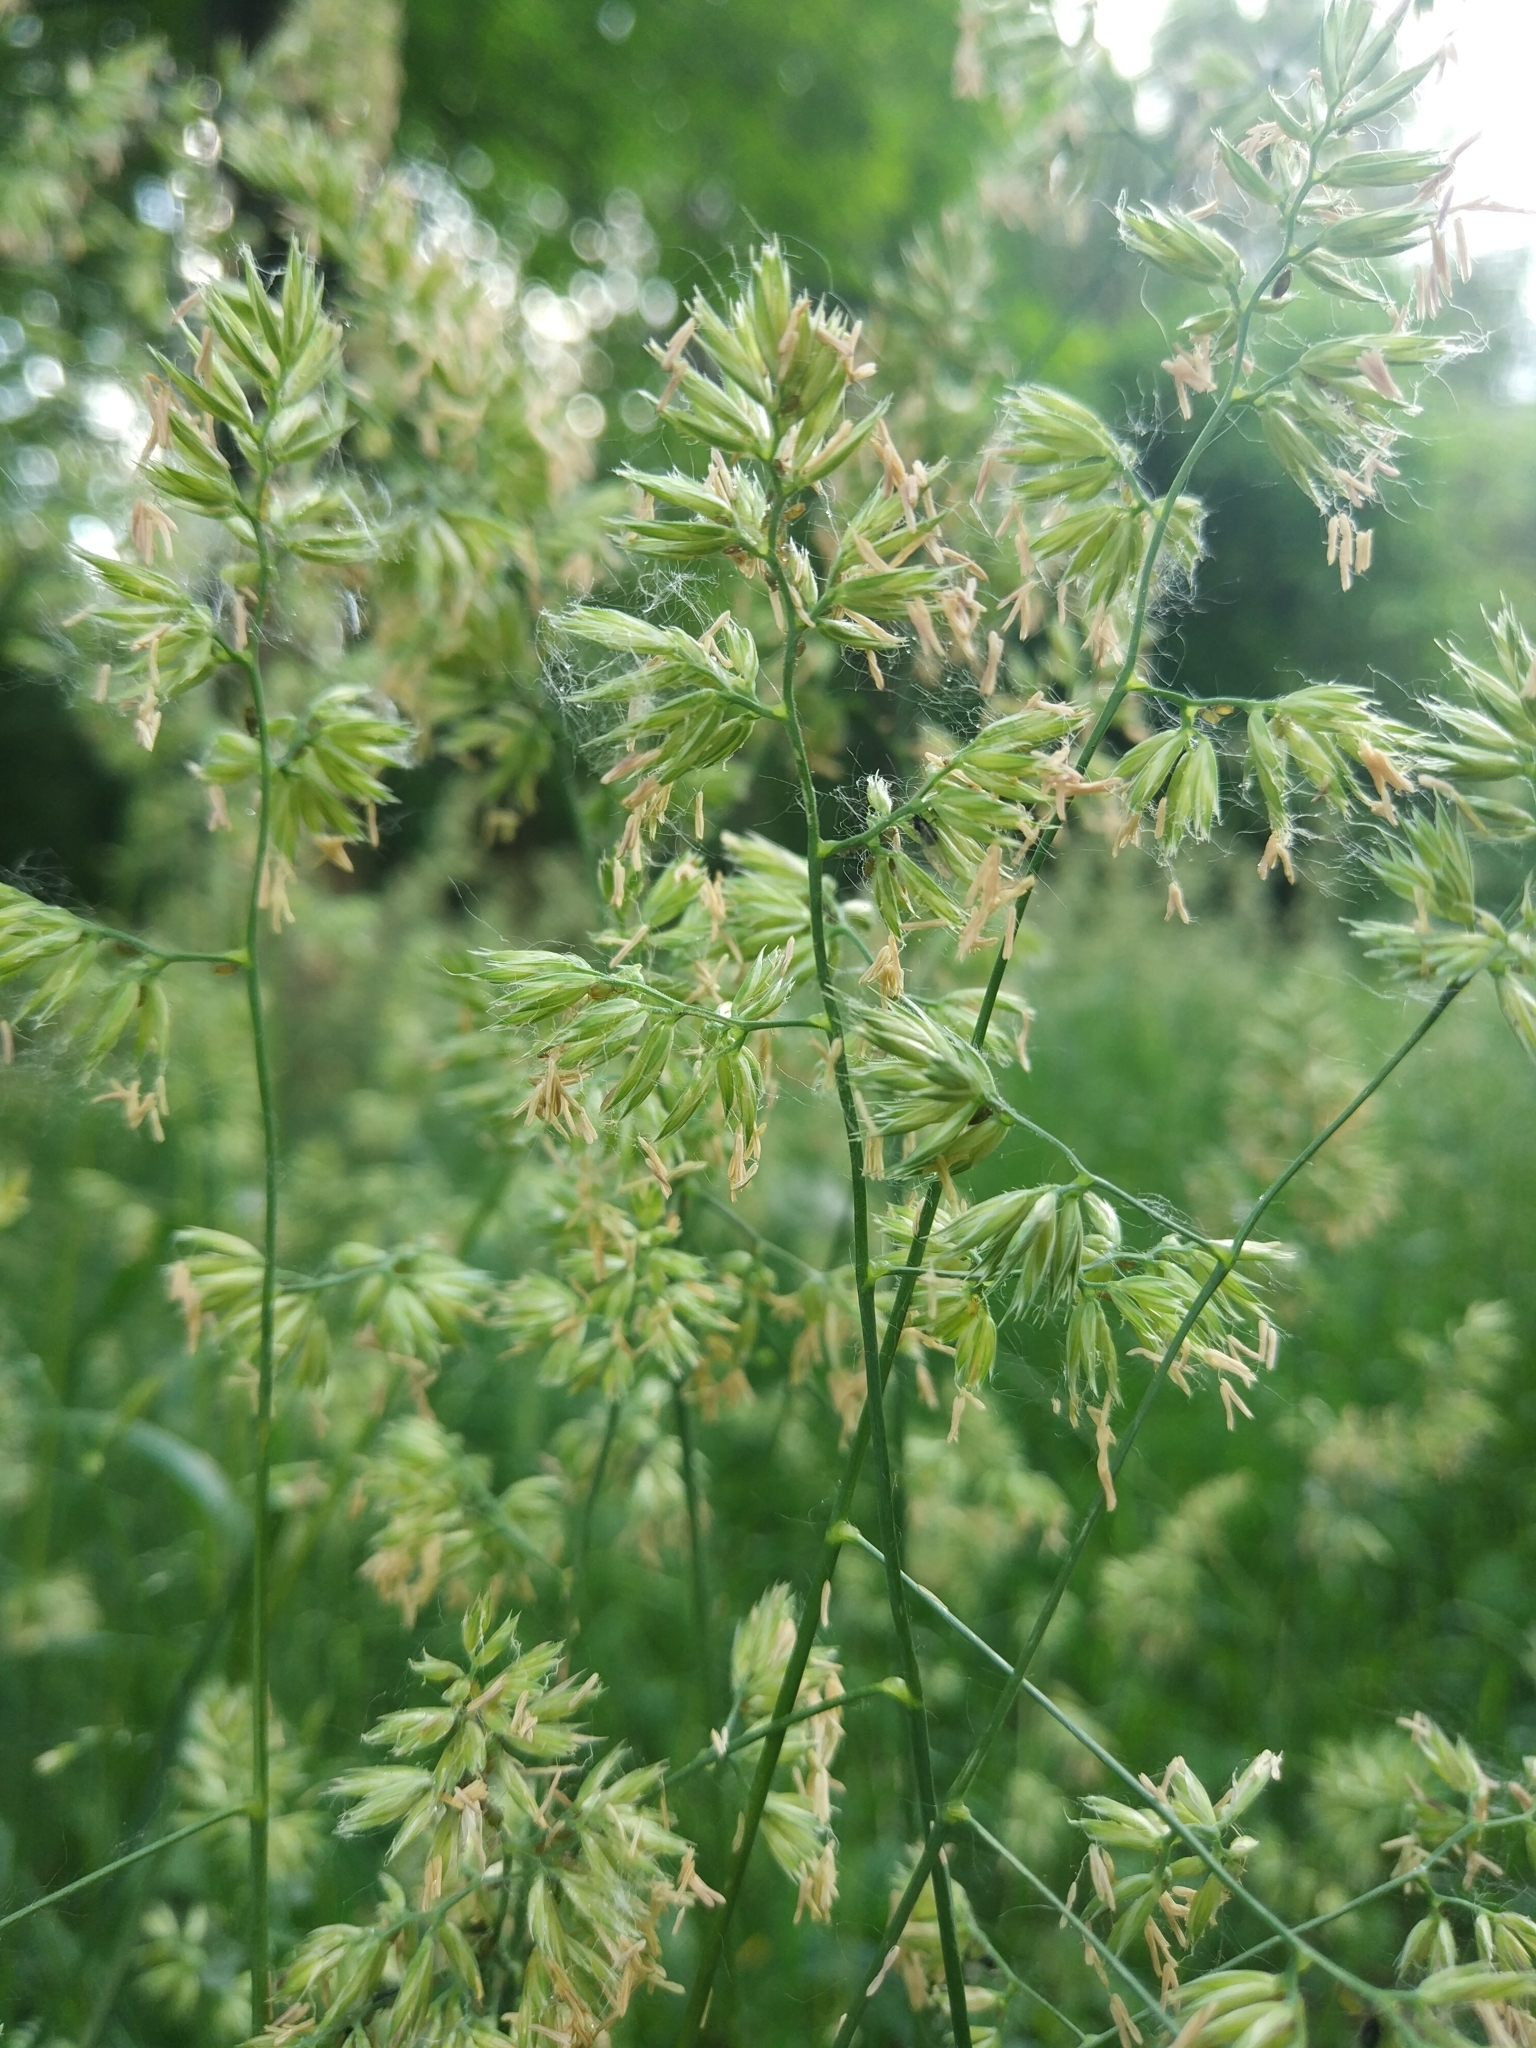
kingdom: Plantae
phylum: Tracheophyta
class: Liliopsida
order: Poales
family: Poaceae
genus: Dactylis
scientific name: Dactylis glomerata
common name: Orchardgrass
